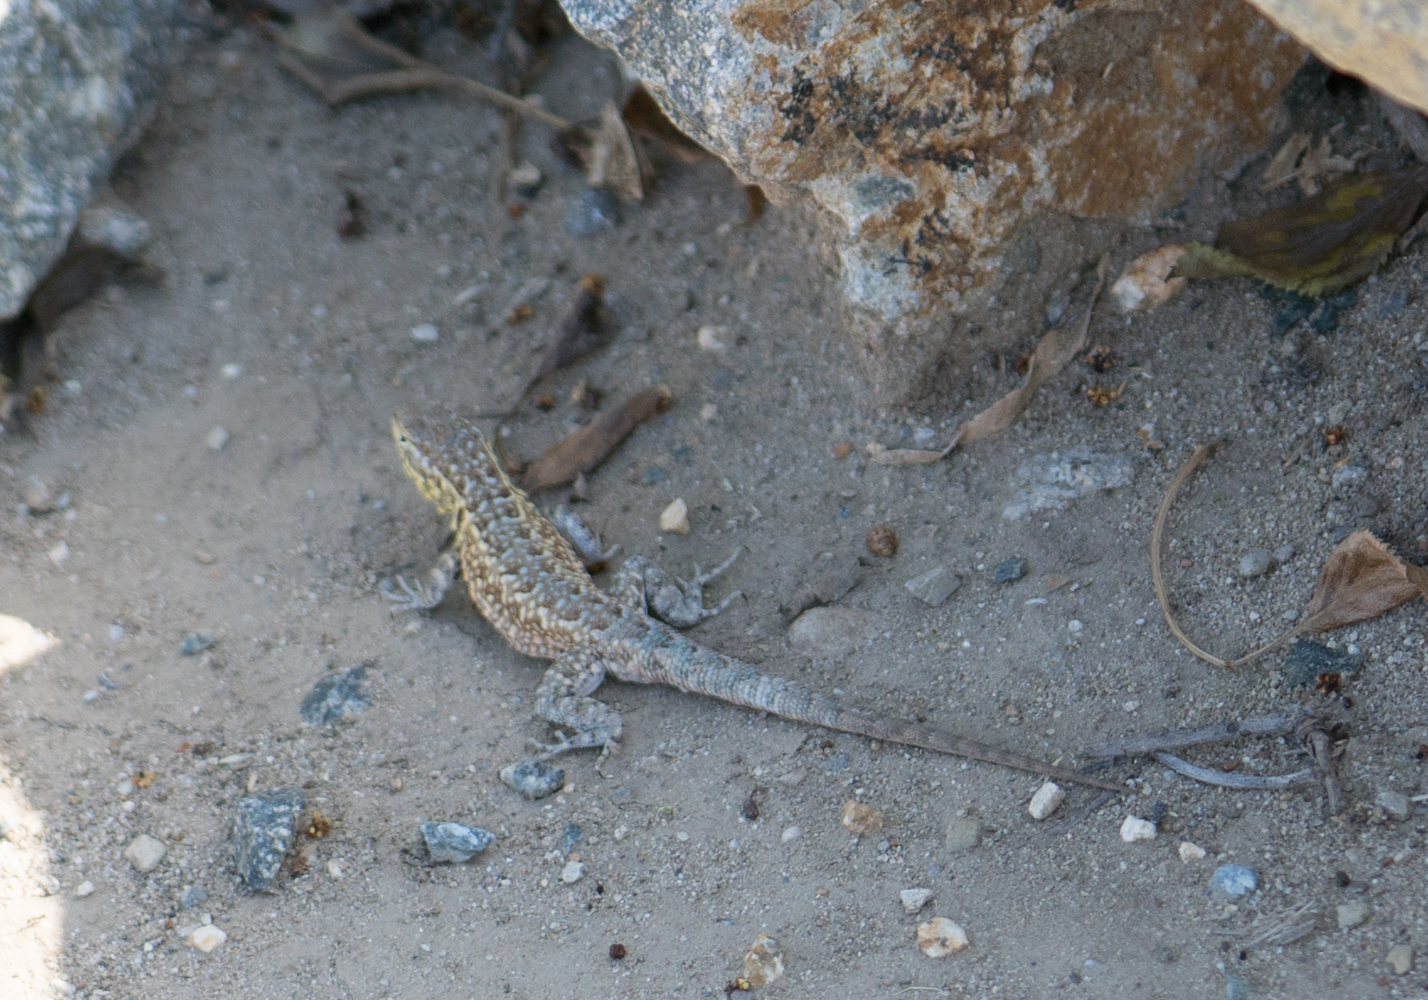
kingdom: Animalia
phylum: Chordata
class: Squamata
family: Phrynosomatidae
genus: Uta
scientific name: Uta stansburiana
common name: Side-blotched lizard
